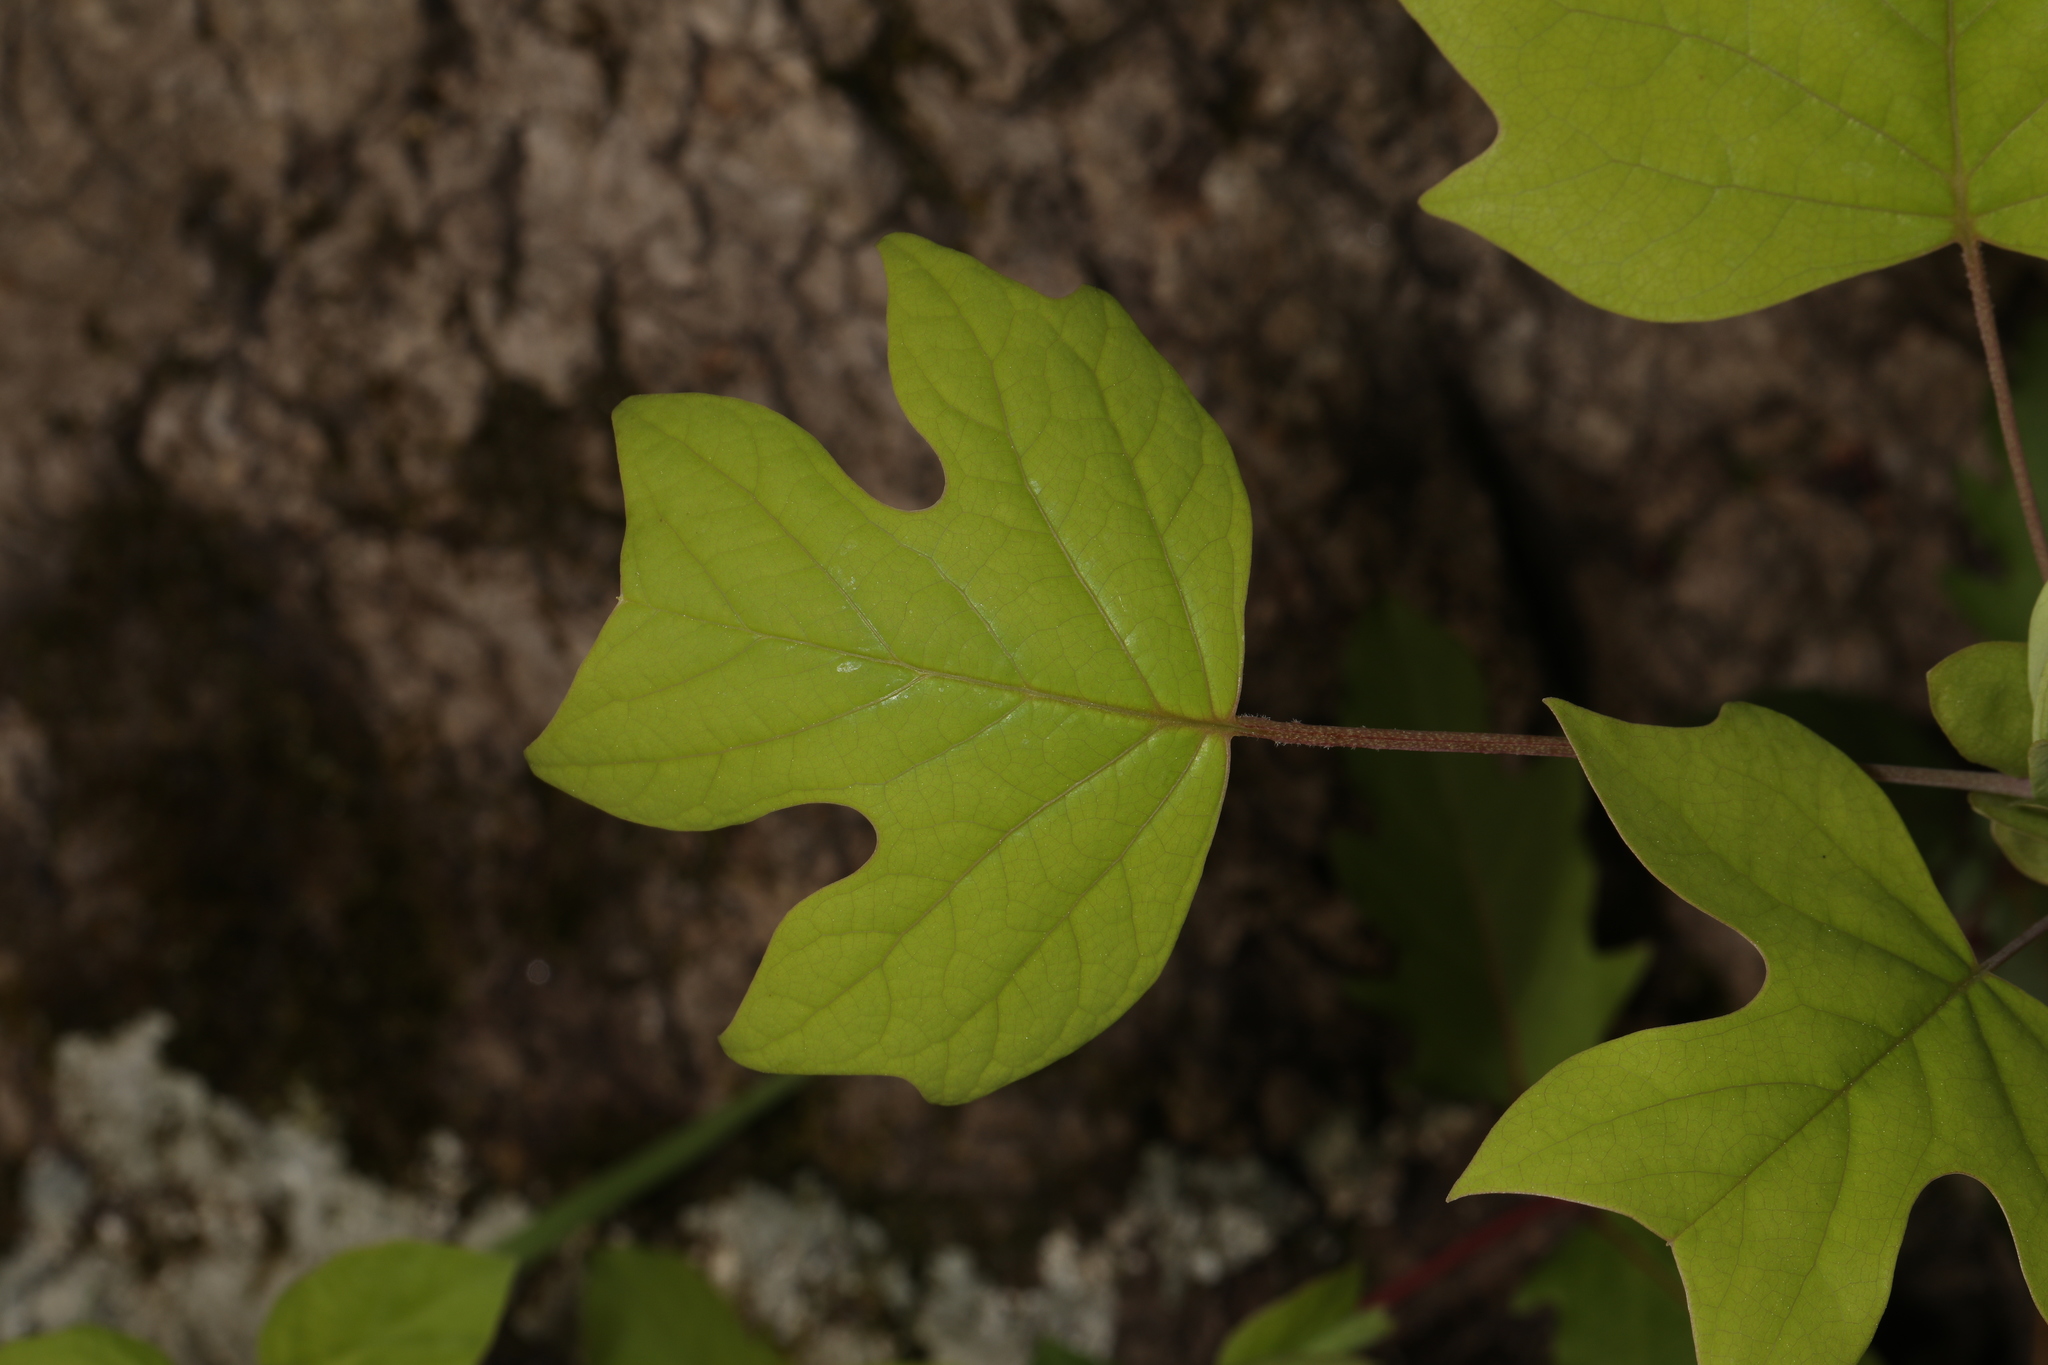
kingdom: Plantae
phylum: Tracheophyta
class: Magnoliopsida
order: Magnoliales
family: Magnoliaceae
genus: Liriodendron
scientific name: Liriodendron tulipifera
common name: Tulip tree
